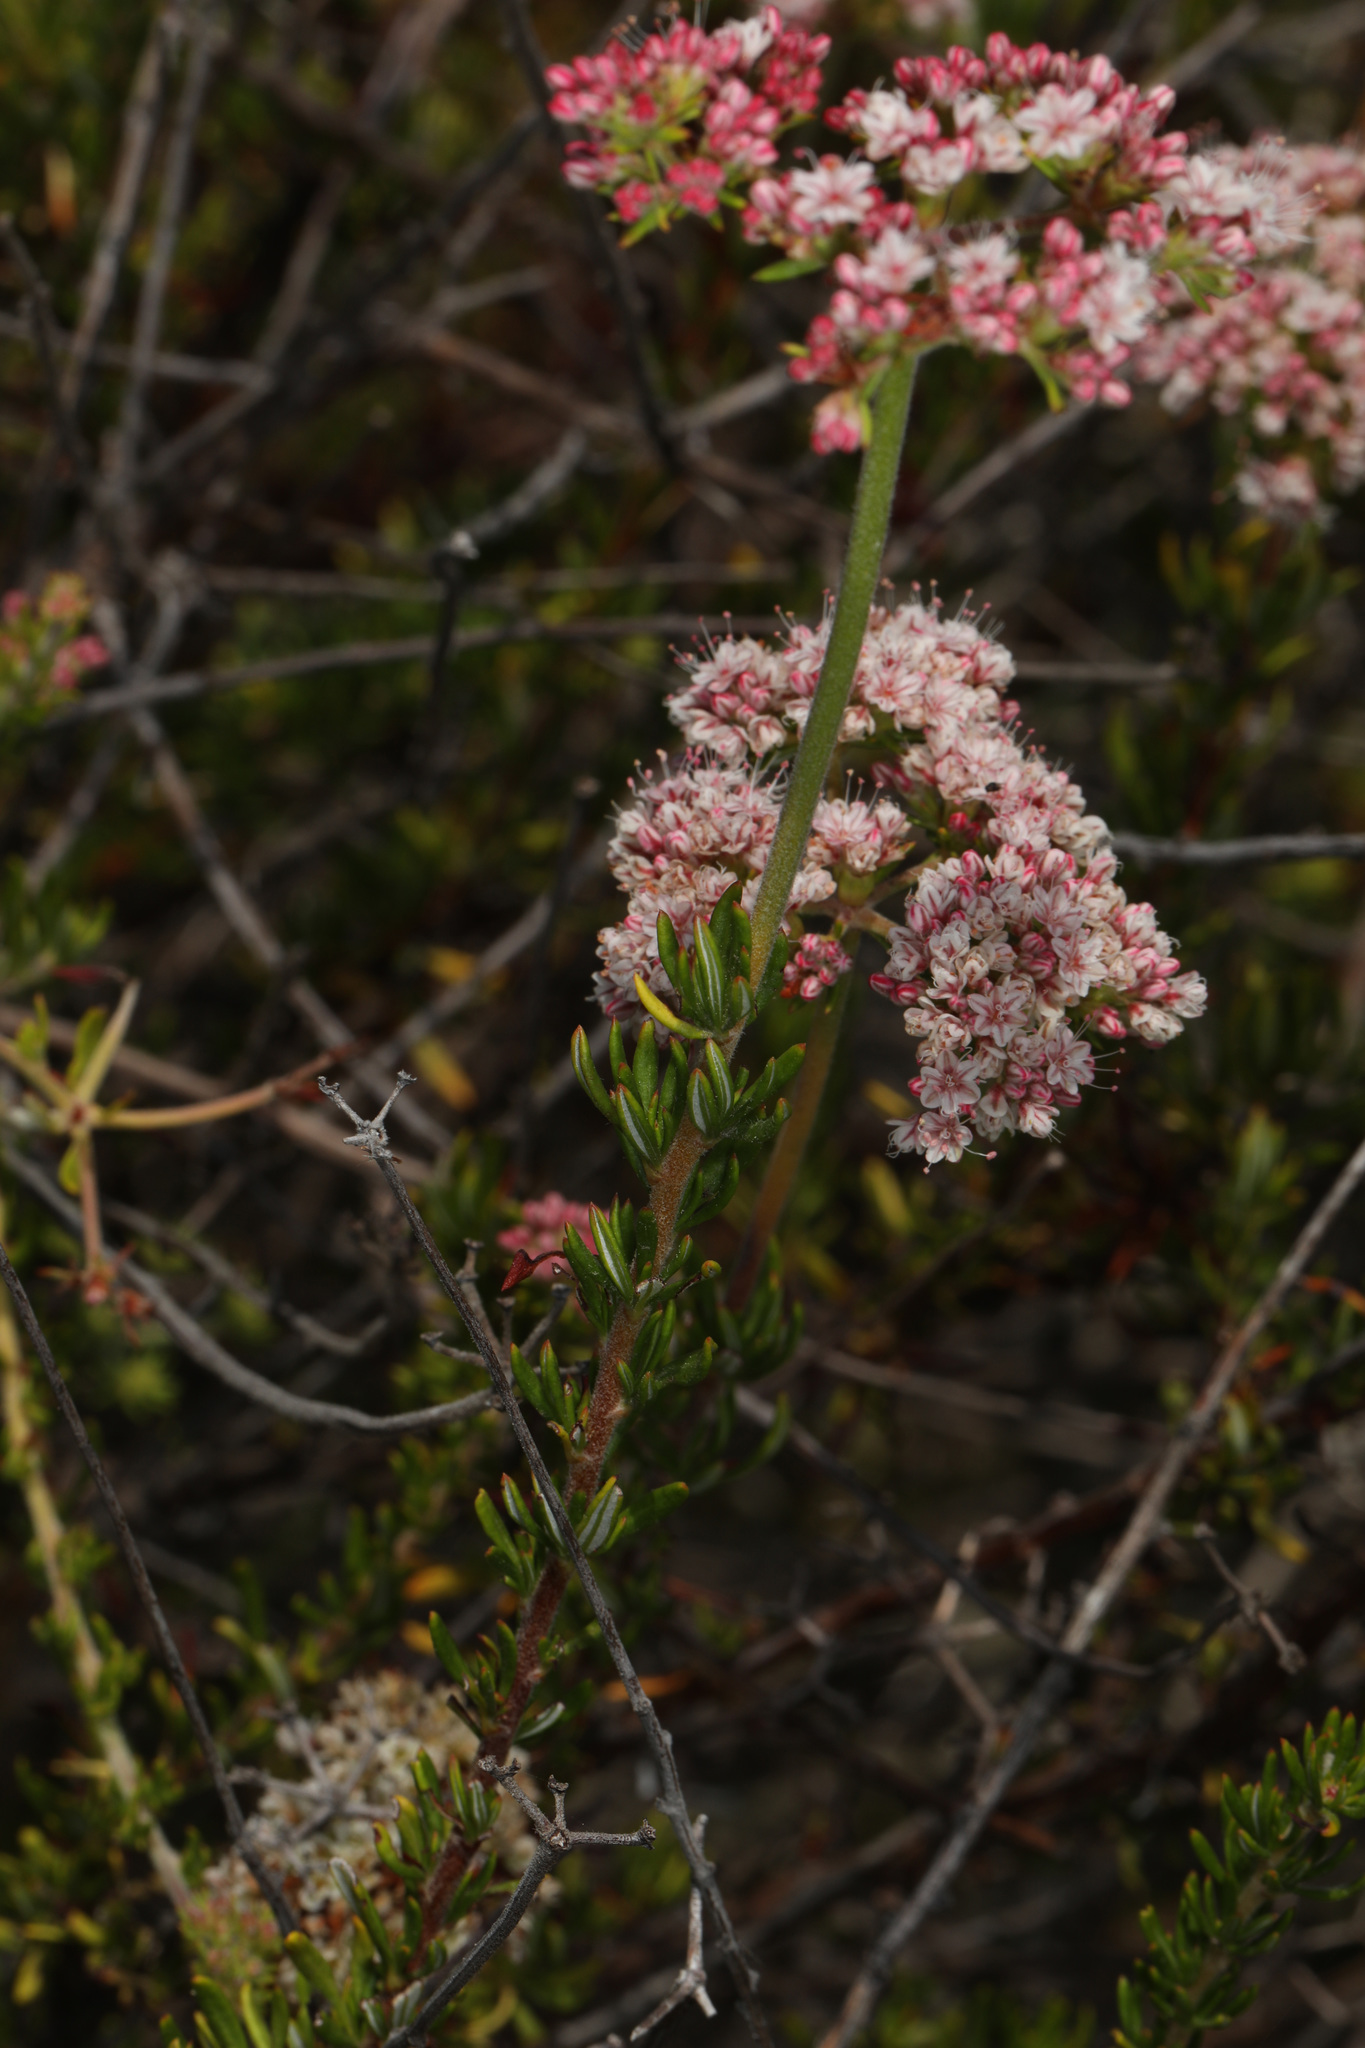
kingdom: Plantae
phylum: Tracheophyta
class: Magnoliopsida
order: Caryophyllales
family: Polygonaceae
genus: Eriogonum
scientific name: Eriogonum fasciculatum
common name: California wild buckwheat
